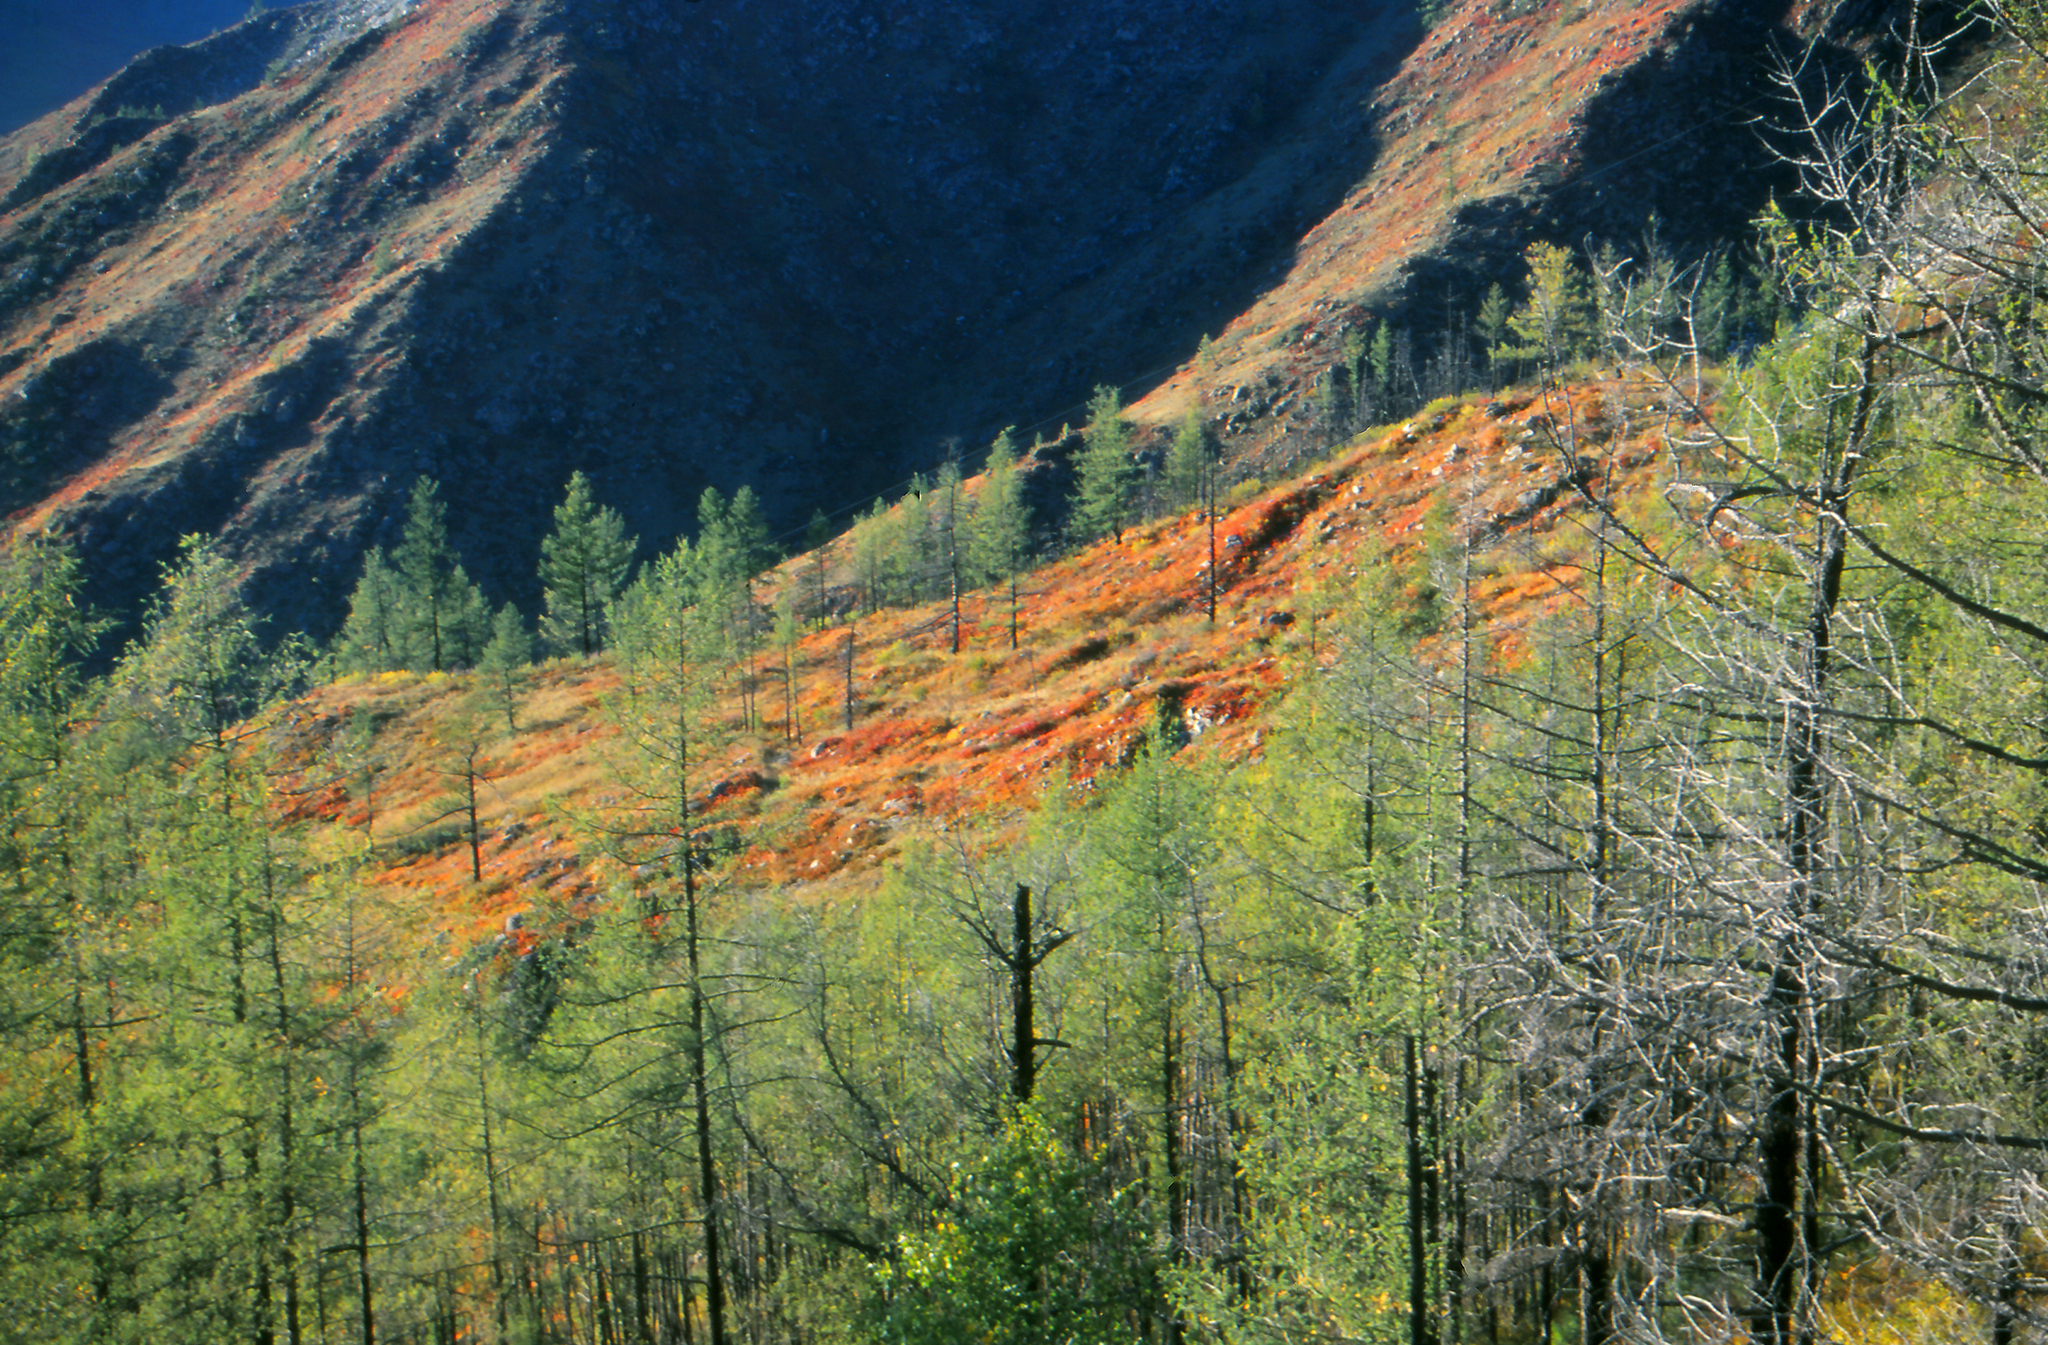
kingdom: Plantae
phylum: Tracheophyta
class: Pinopsida
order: Pinales
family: Pinaceae
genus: Larix
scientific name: Larix sibirica
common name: Siberian larch
